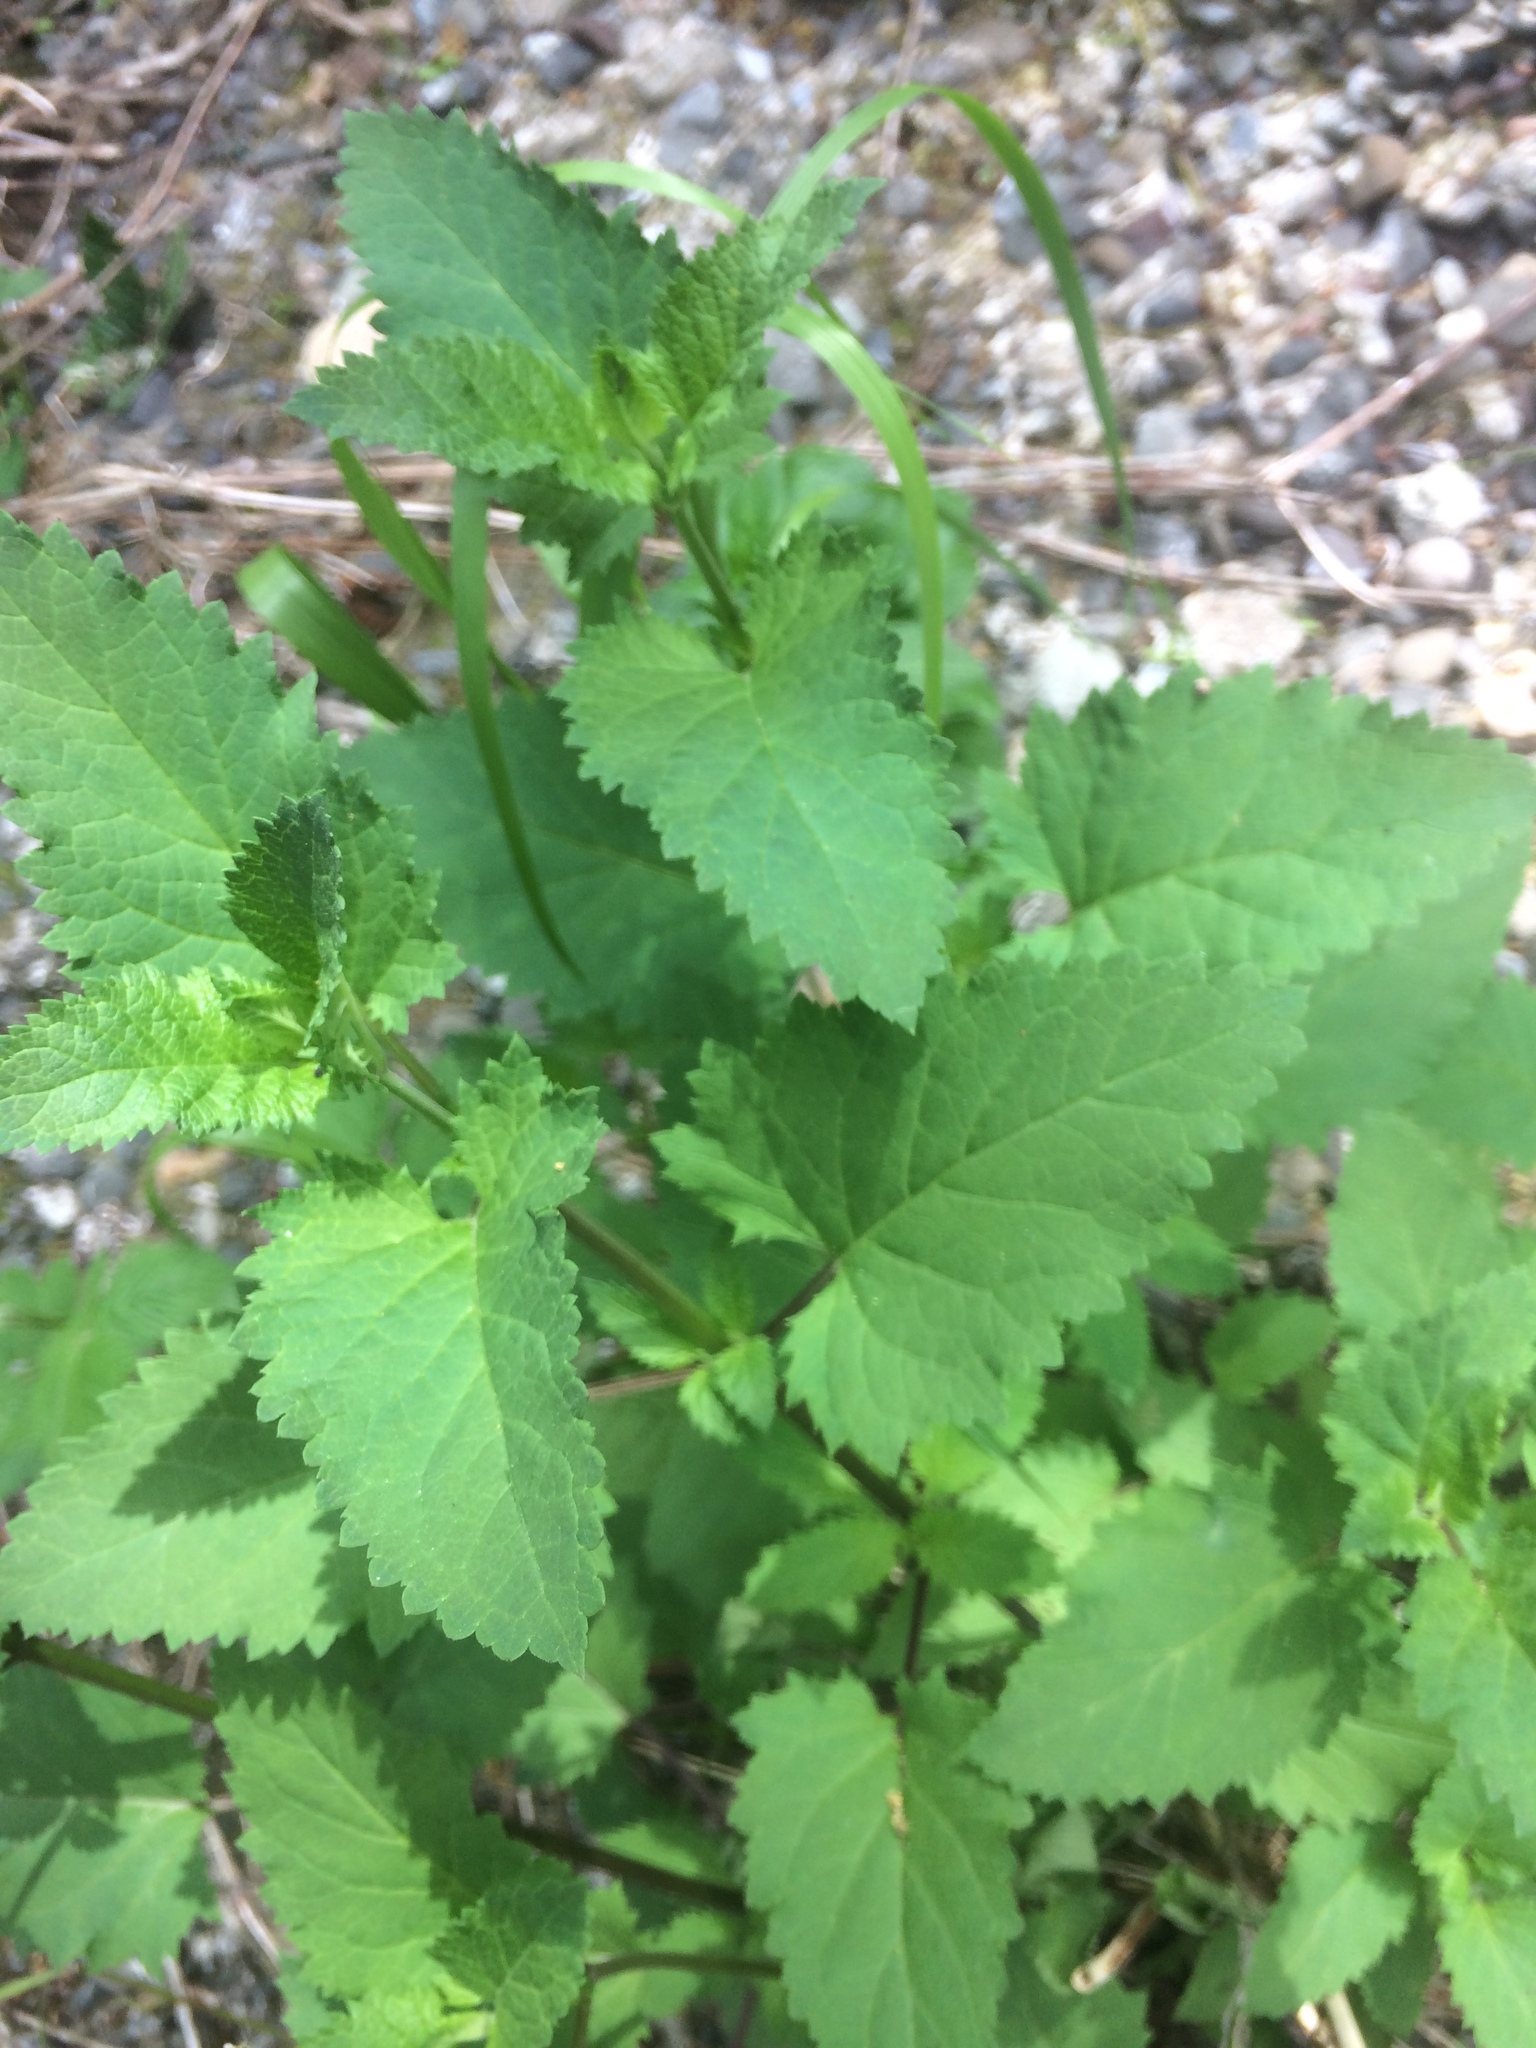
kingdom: Plantae
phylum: Tracheophyta
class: Magnoliopsida
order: Lamiales
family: Scrophulariaceae
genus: Scrophularia
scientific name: Scrophularia californica
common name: California figwort
